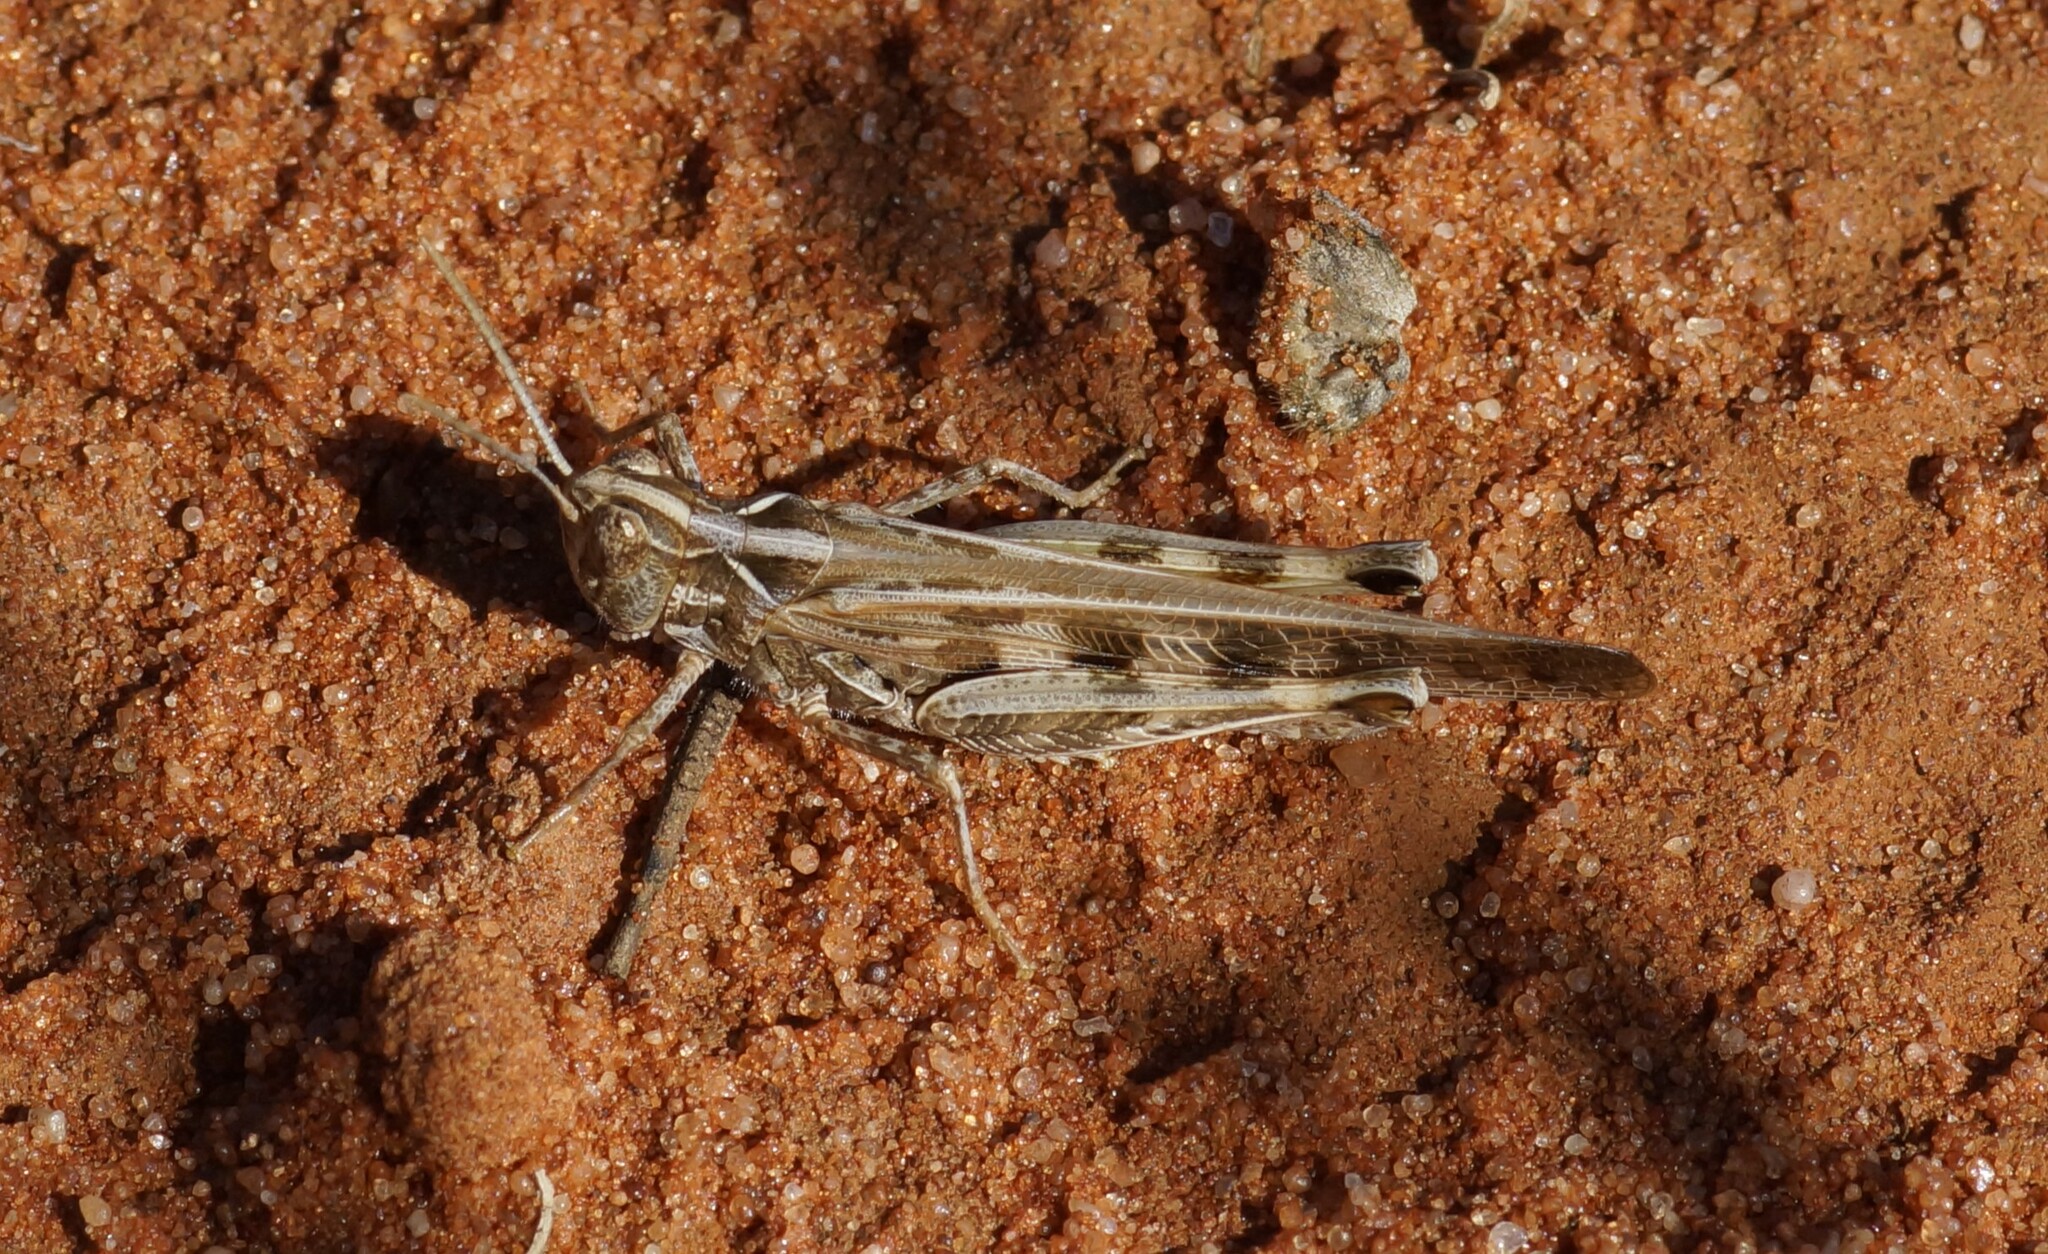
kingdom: Animalia
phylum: Arthropoda
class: Insecta
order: Orthoptera
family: Acrididae
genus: Chortoicetes
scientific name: Chortoicetes terminifera
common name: Australian plague locust
